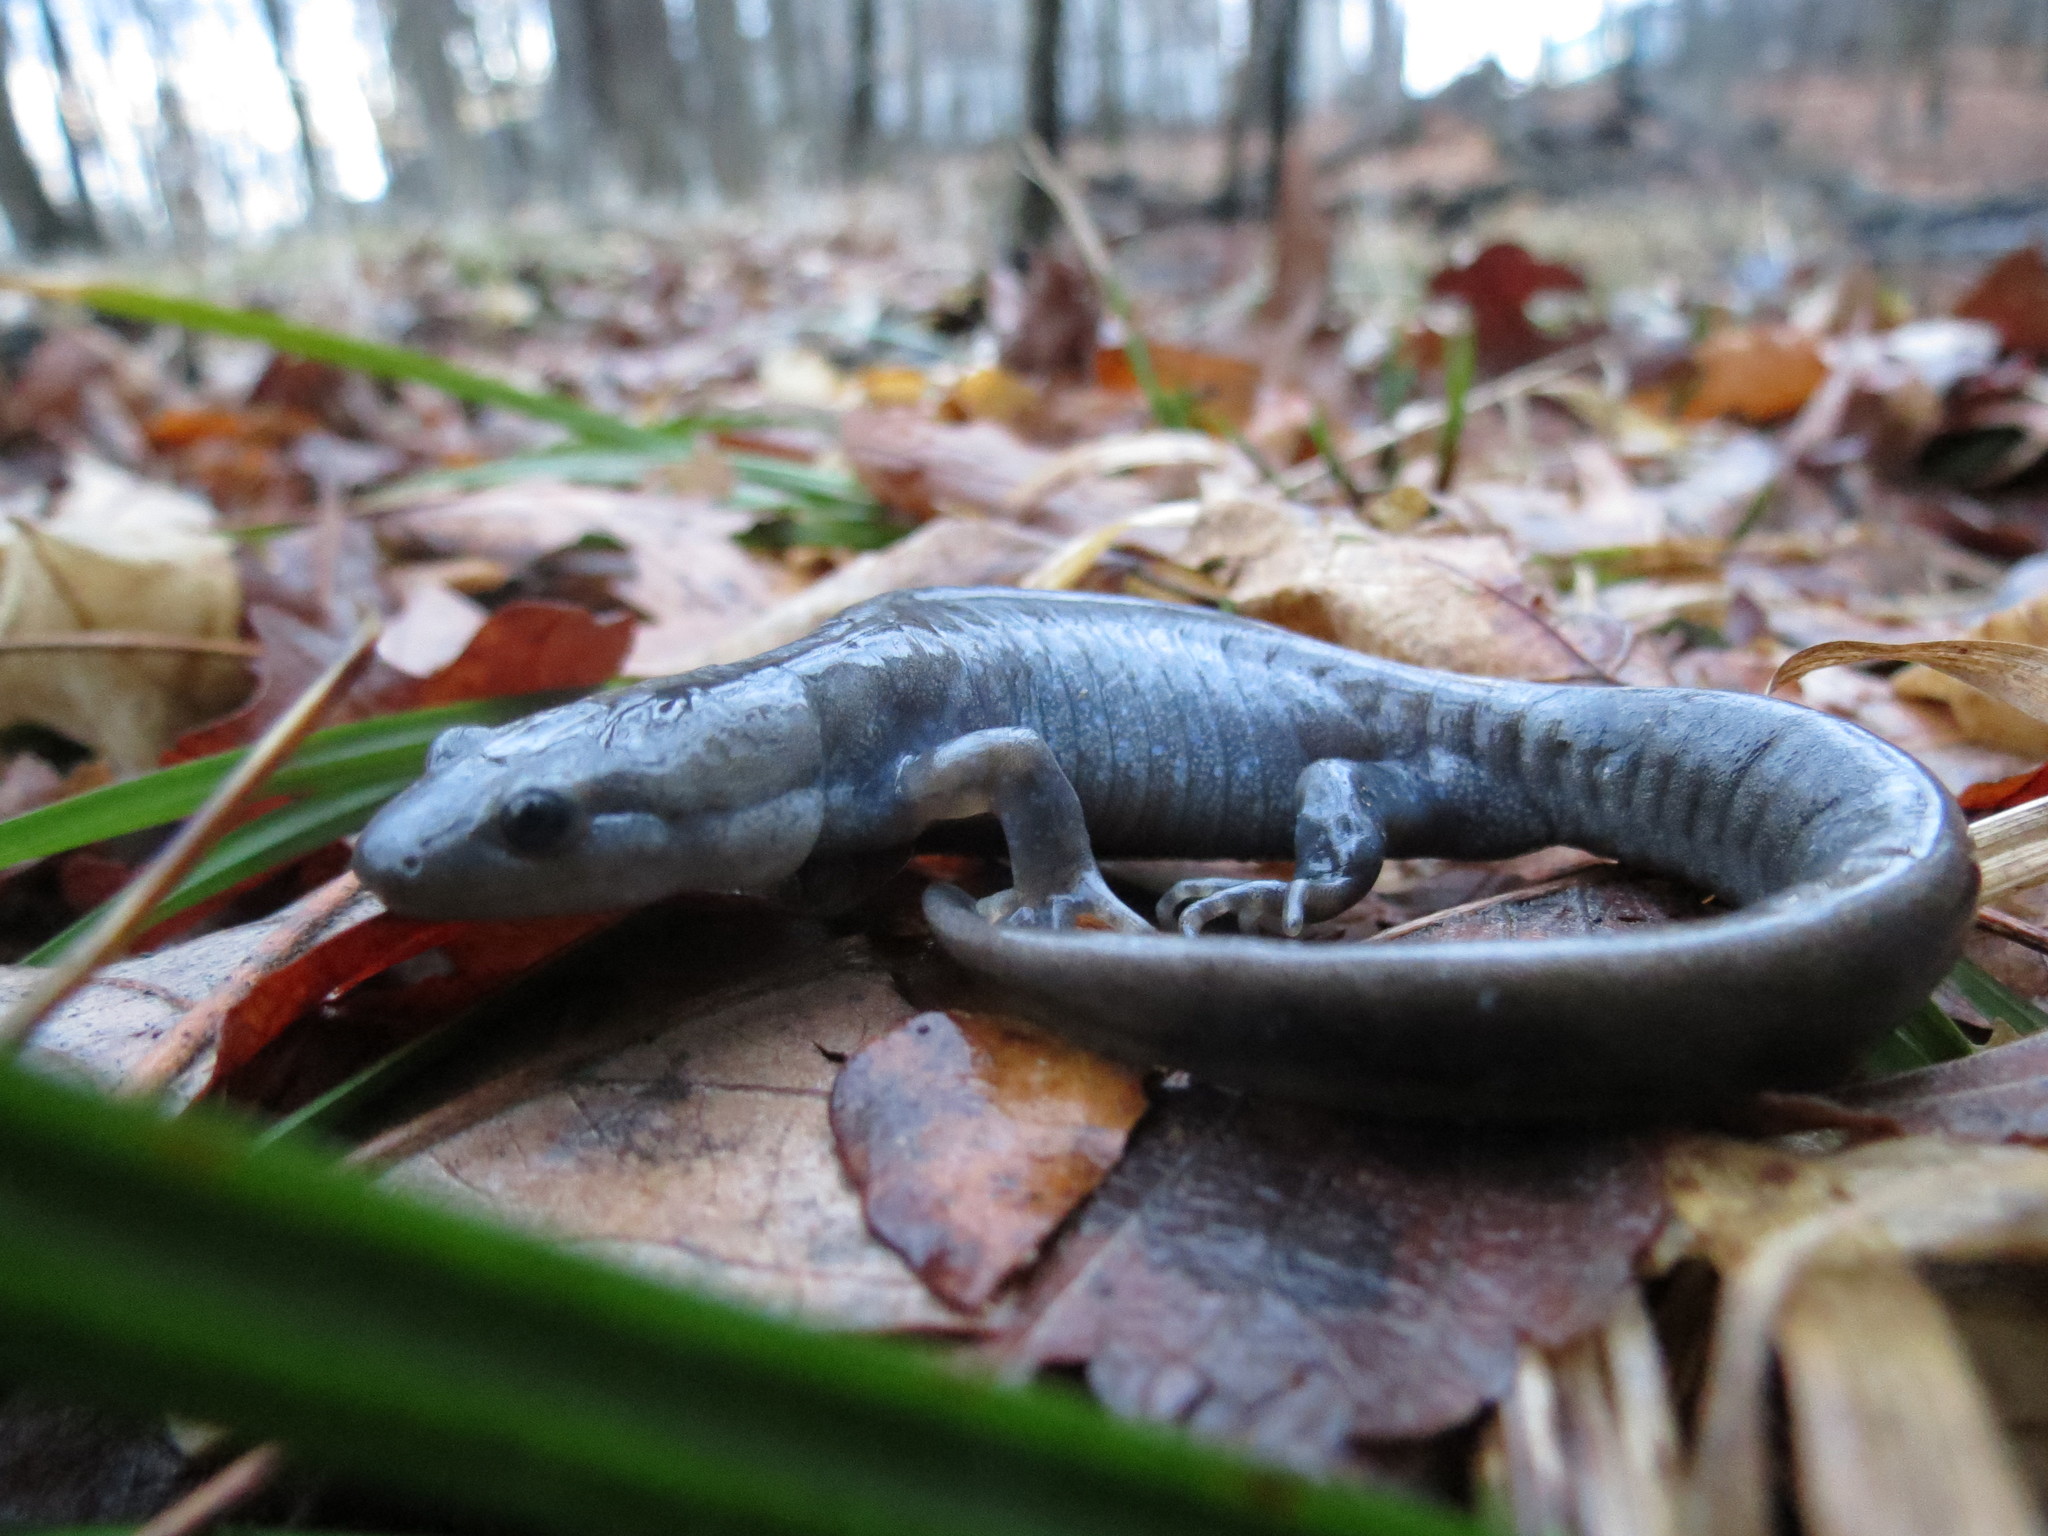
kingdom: Animalia
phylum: Chordata
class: Amphibia
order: Caudata
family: Ambystomatidae
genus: Ambystoma
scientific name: Ambystoma unisexual
